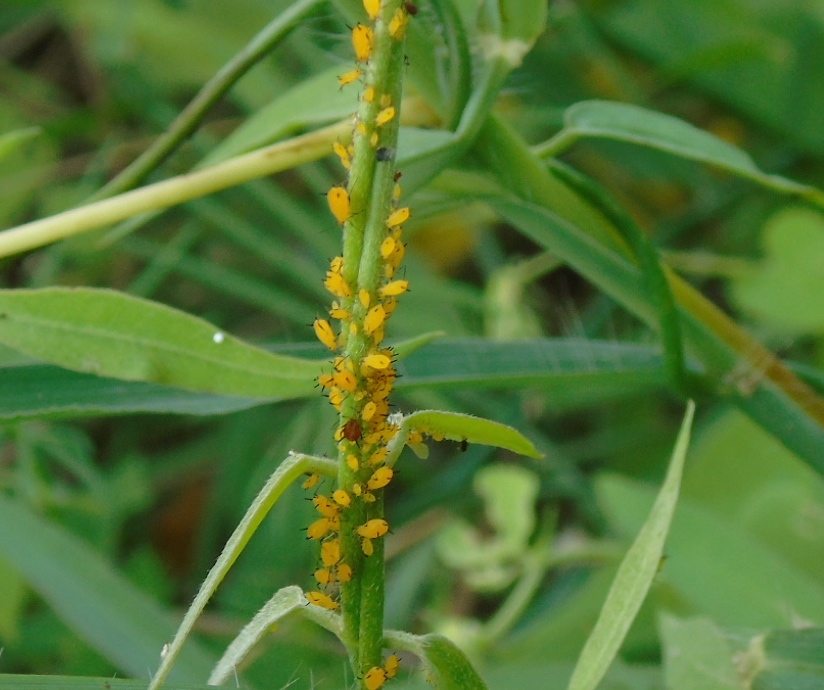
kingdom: Animalia
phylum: Arthropoda
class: Insecta
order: Hemiptera
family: Aphididae
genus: Aphis
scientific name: Aphis nerii
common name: Oleander aphid
